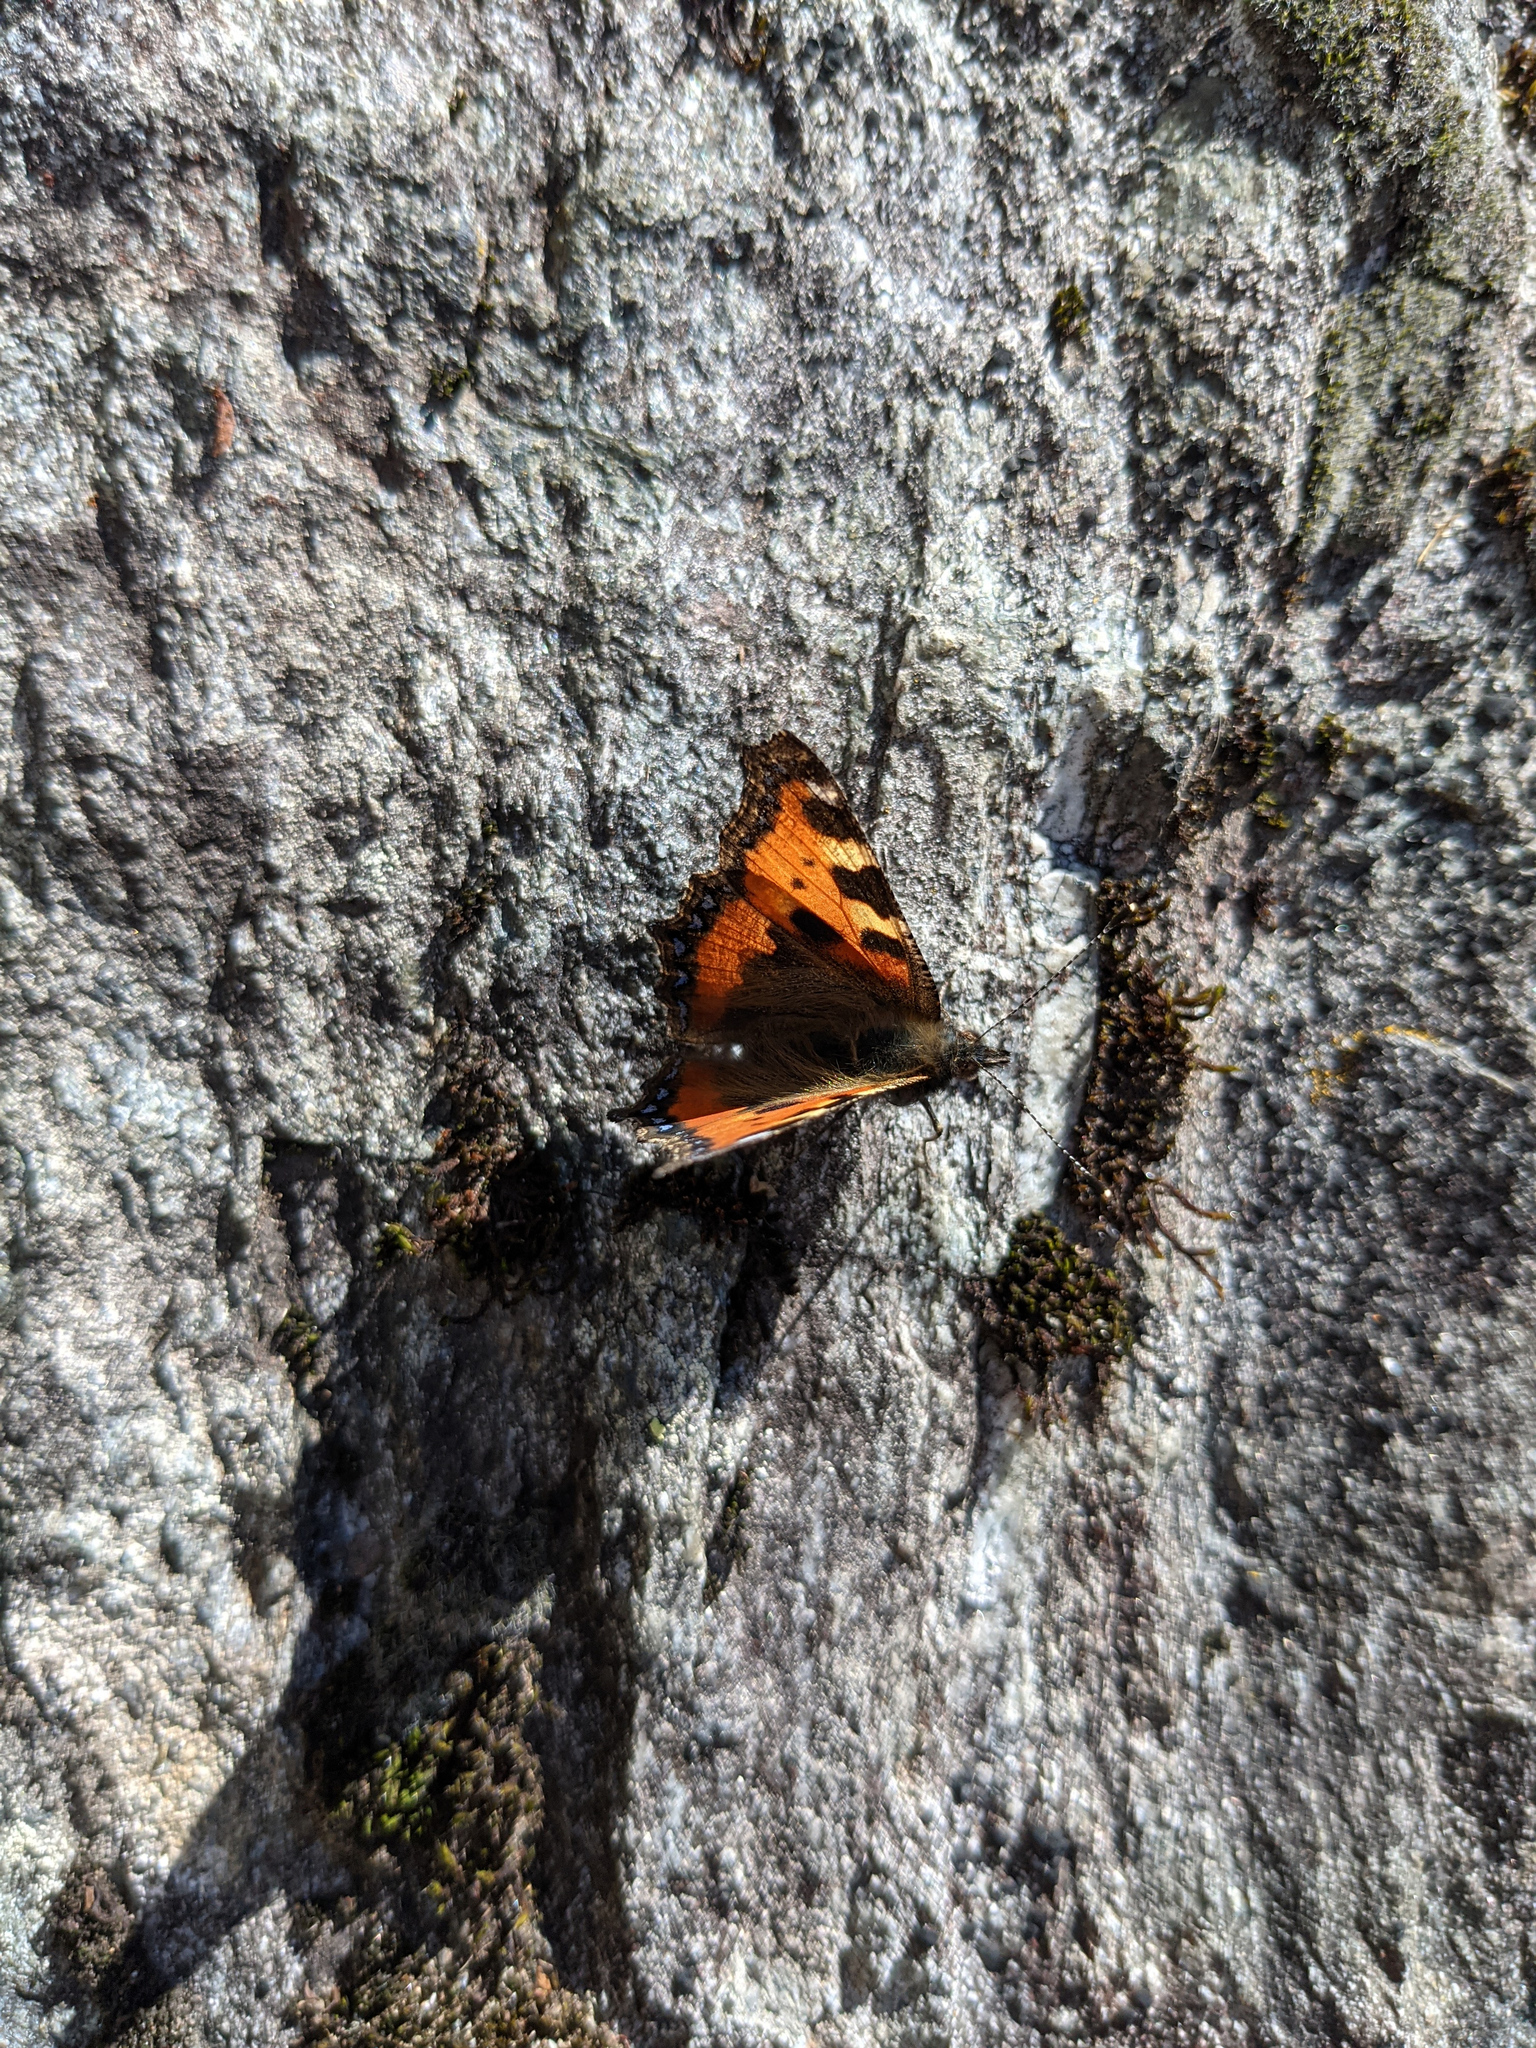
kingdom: Animalia
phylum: Arthropoda
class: Insecta
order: Lepidoptera
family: Nymphalidae
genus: Aglais
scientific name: Aglais urticae
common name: Small tortoiseshell
